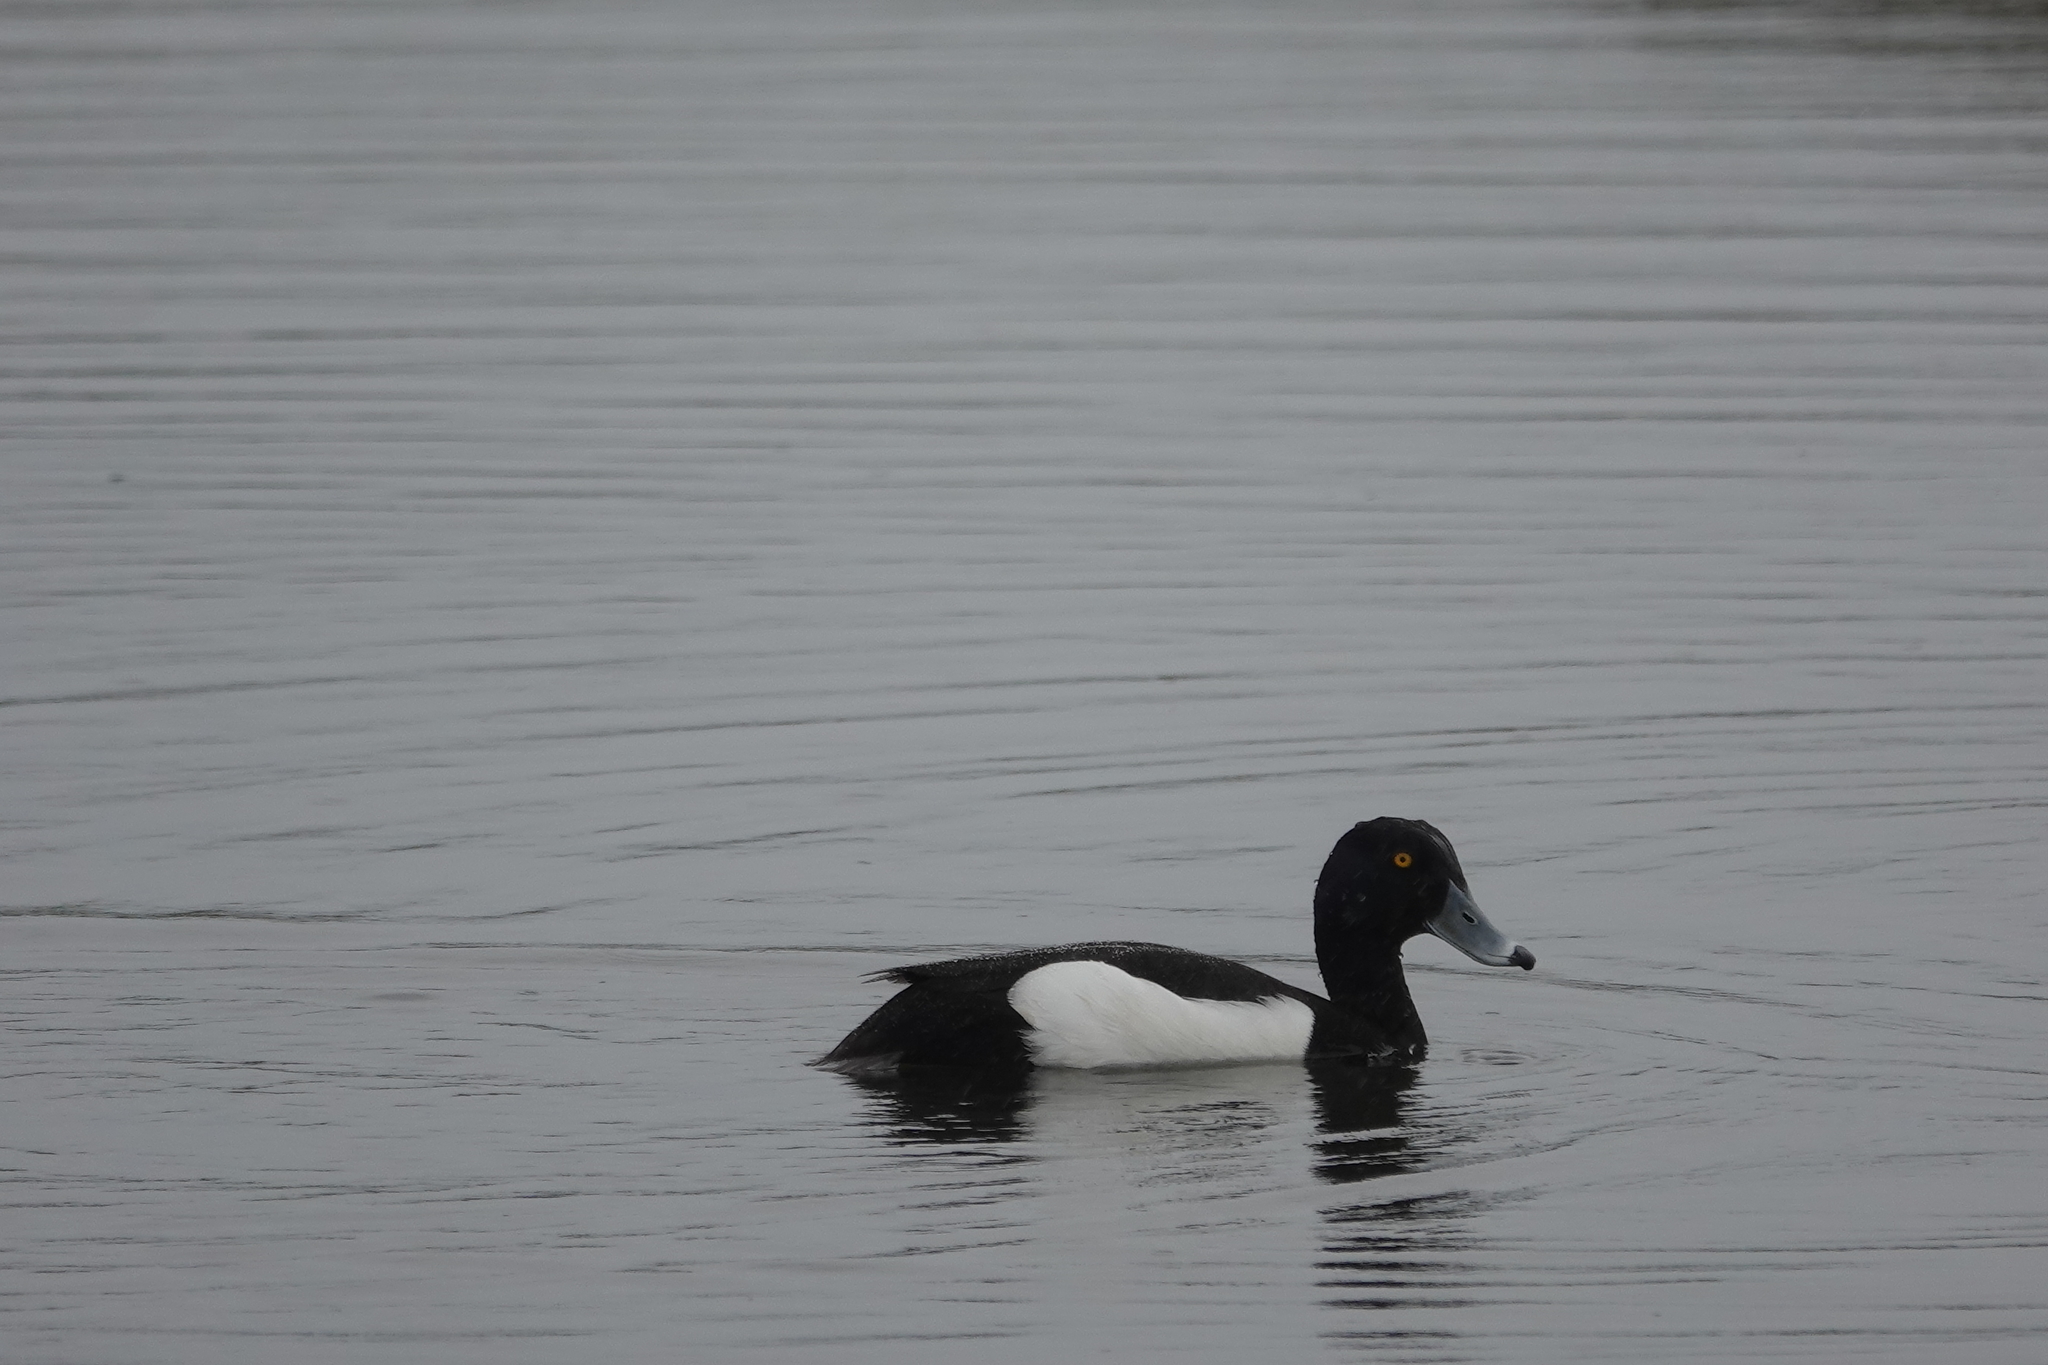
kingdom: Animalia
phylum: Chordata
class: Aves
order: Anseriformes
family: Anatidae
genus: Aythya
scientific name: Aythya fuligula
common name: Tufted duck
